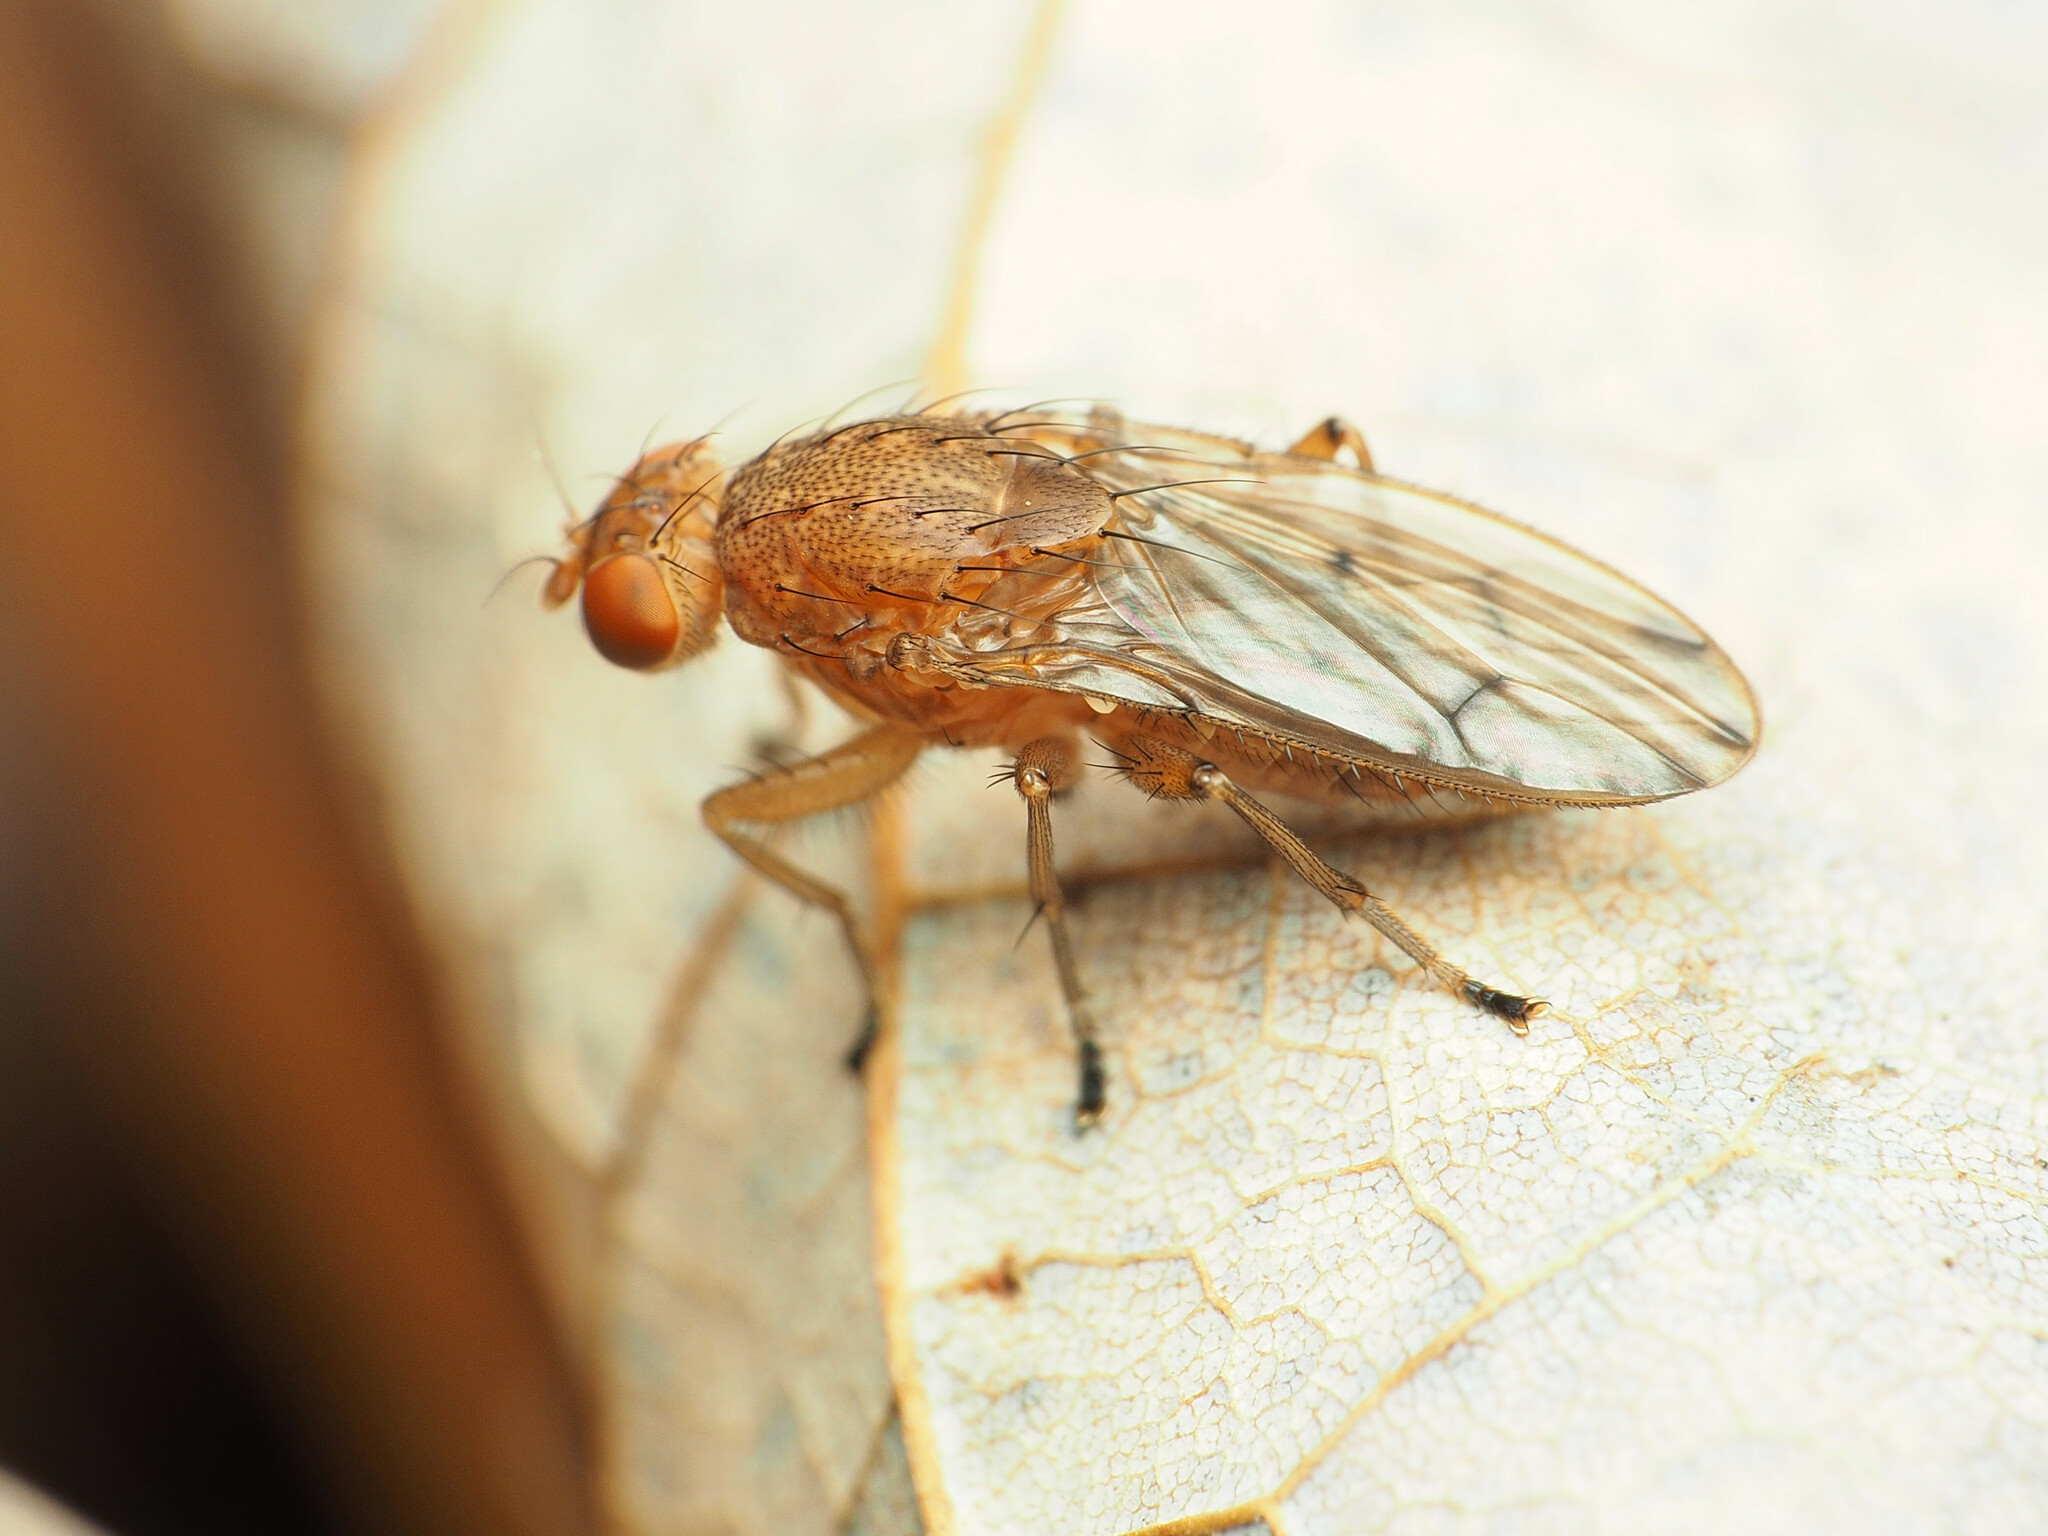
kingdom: Animalia
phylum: Arthropoda
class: Insecta
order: Diptera
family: Heleomyzidae
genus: Suillia
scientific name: Suillia quinquepunctata
